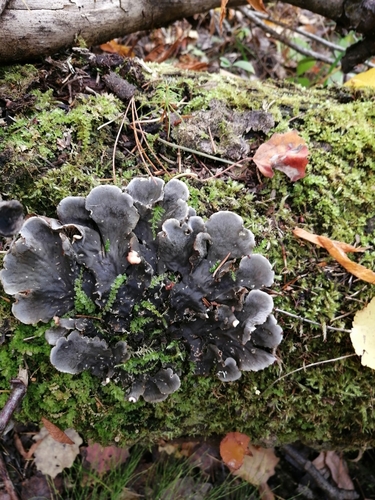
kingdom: Fungi
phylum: Ascomycota
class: Lecanoromycetes
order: Peltigerales
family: Peltigeraceae
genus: Peltigera
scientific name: Peltigera
